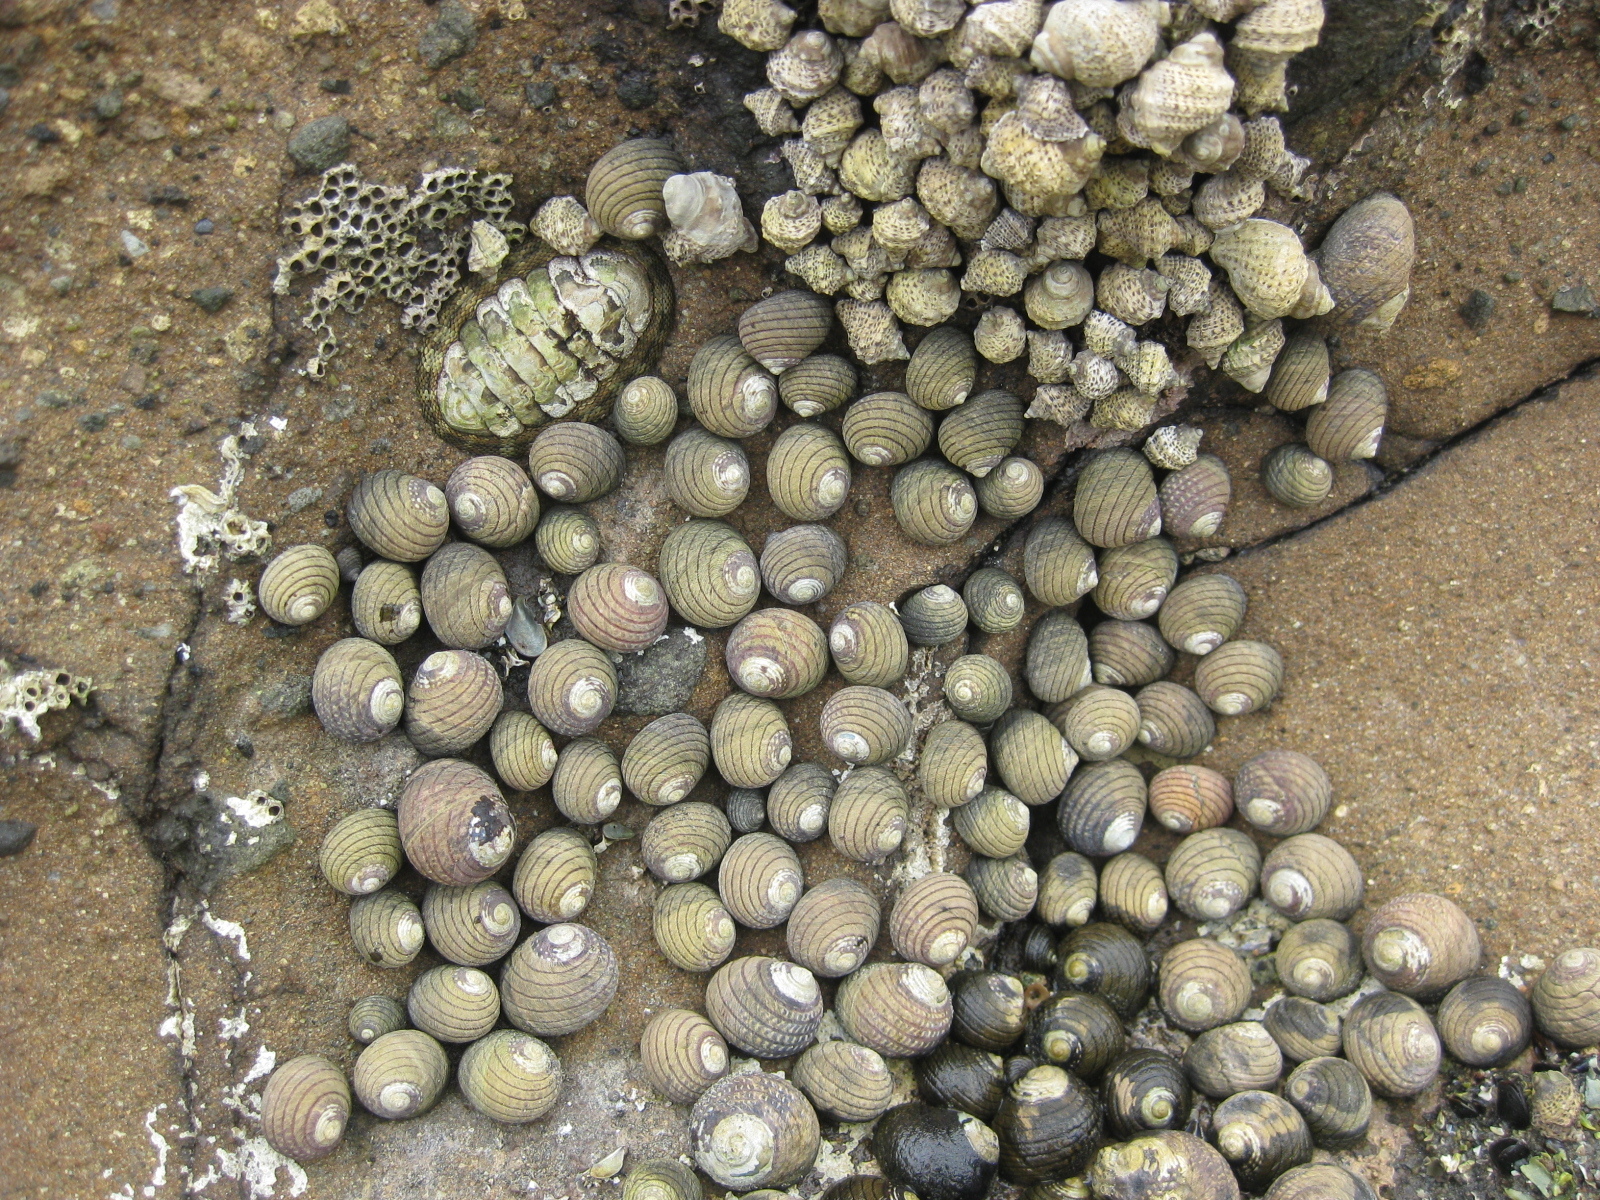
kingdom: Animalia
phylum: Mollusca
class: Gastropoda
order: Trochida
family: Trochidae
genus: Diloma
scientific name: Diloma aethiops
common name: Scorched monodont
